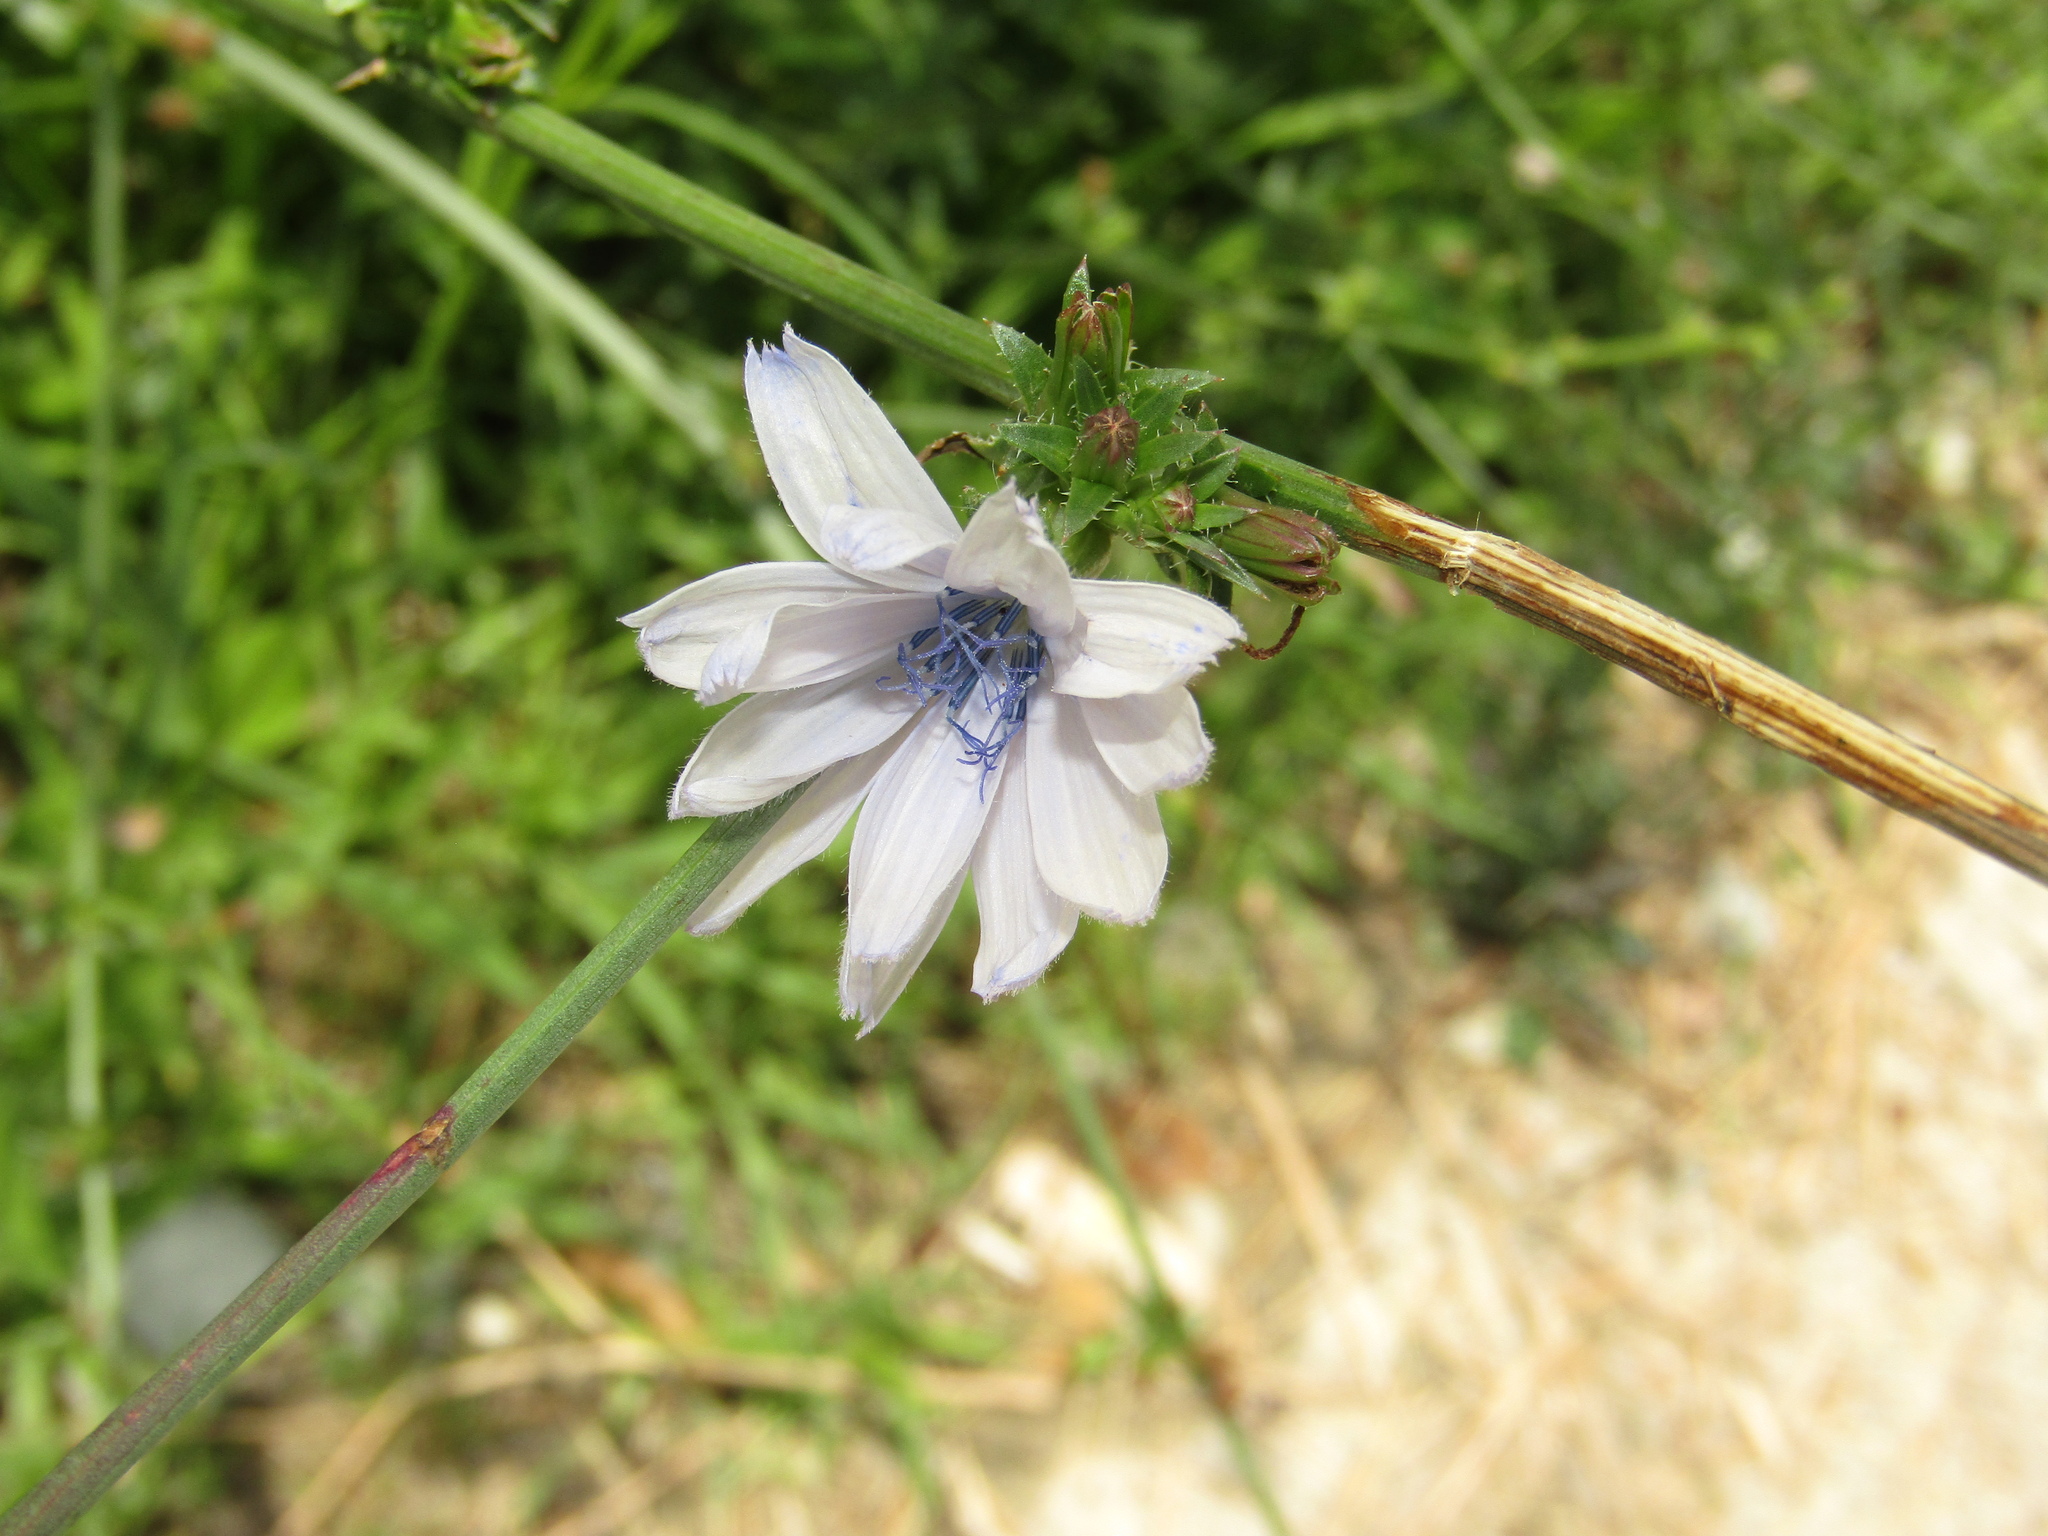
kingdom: Plantae
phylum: Tracheophyta
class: Magnoliopsida
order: Asterales
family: Asteraceae
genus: Cichorium
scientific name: Cichorium intybus
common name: Chicory
